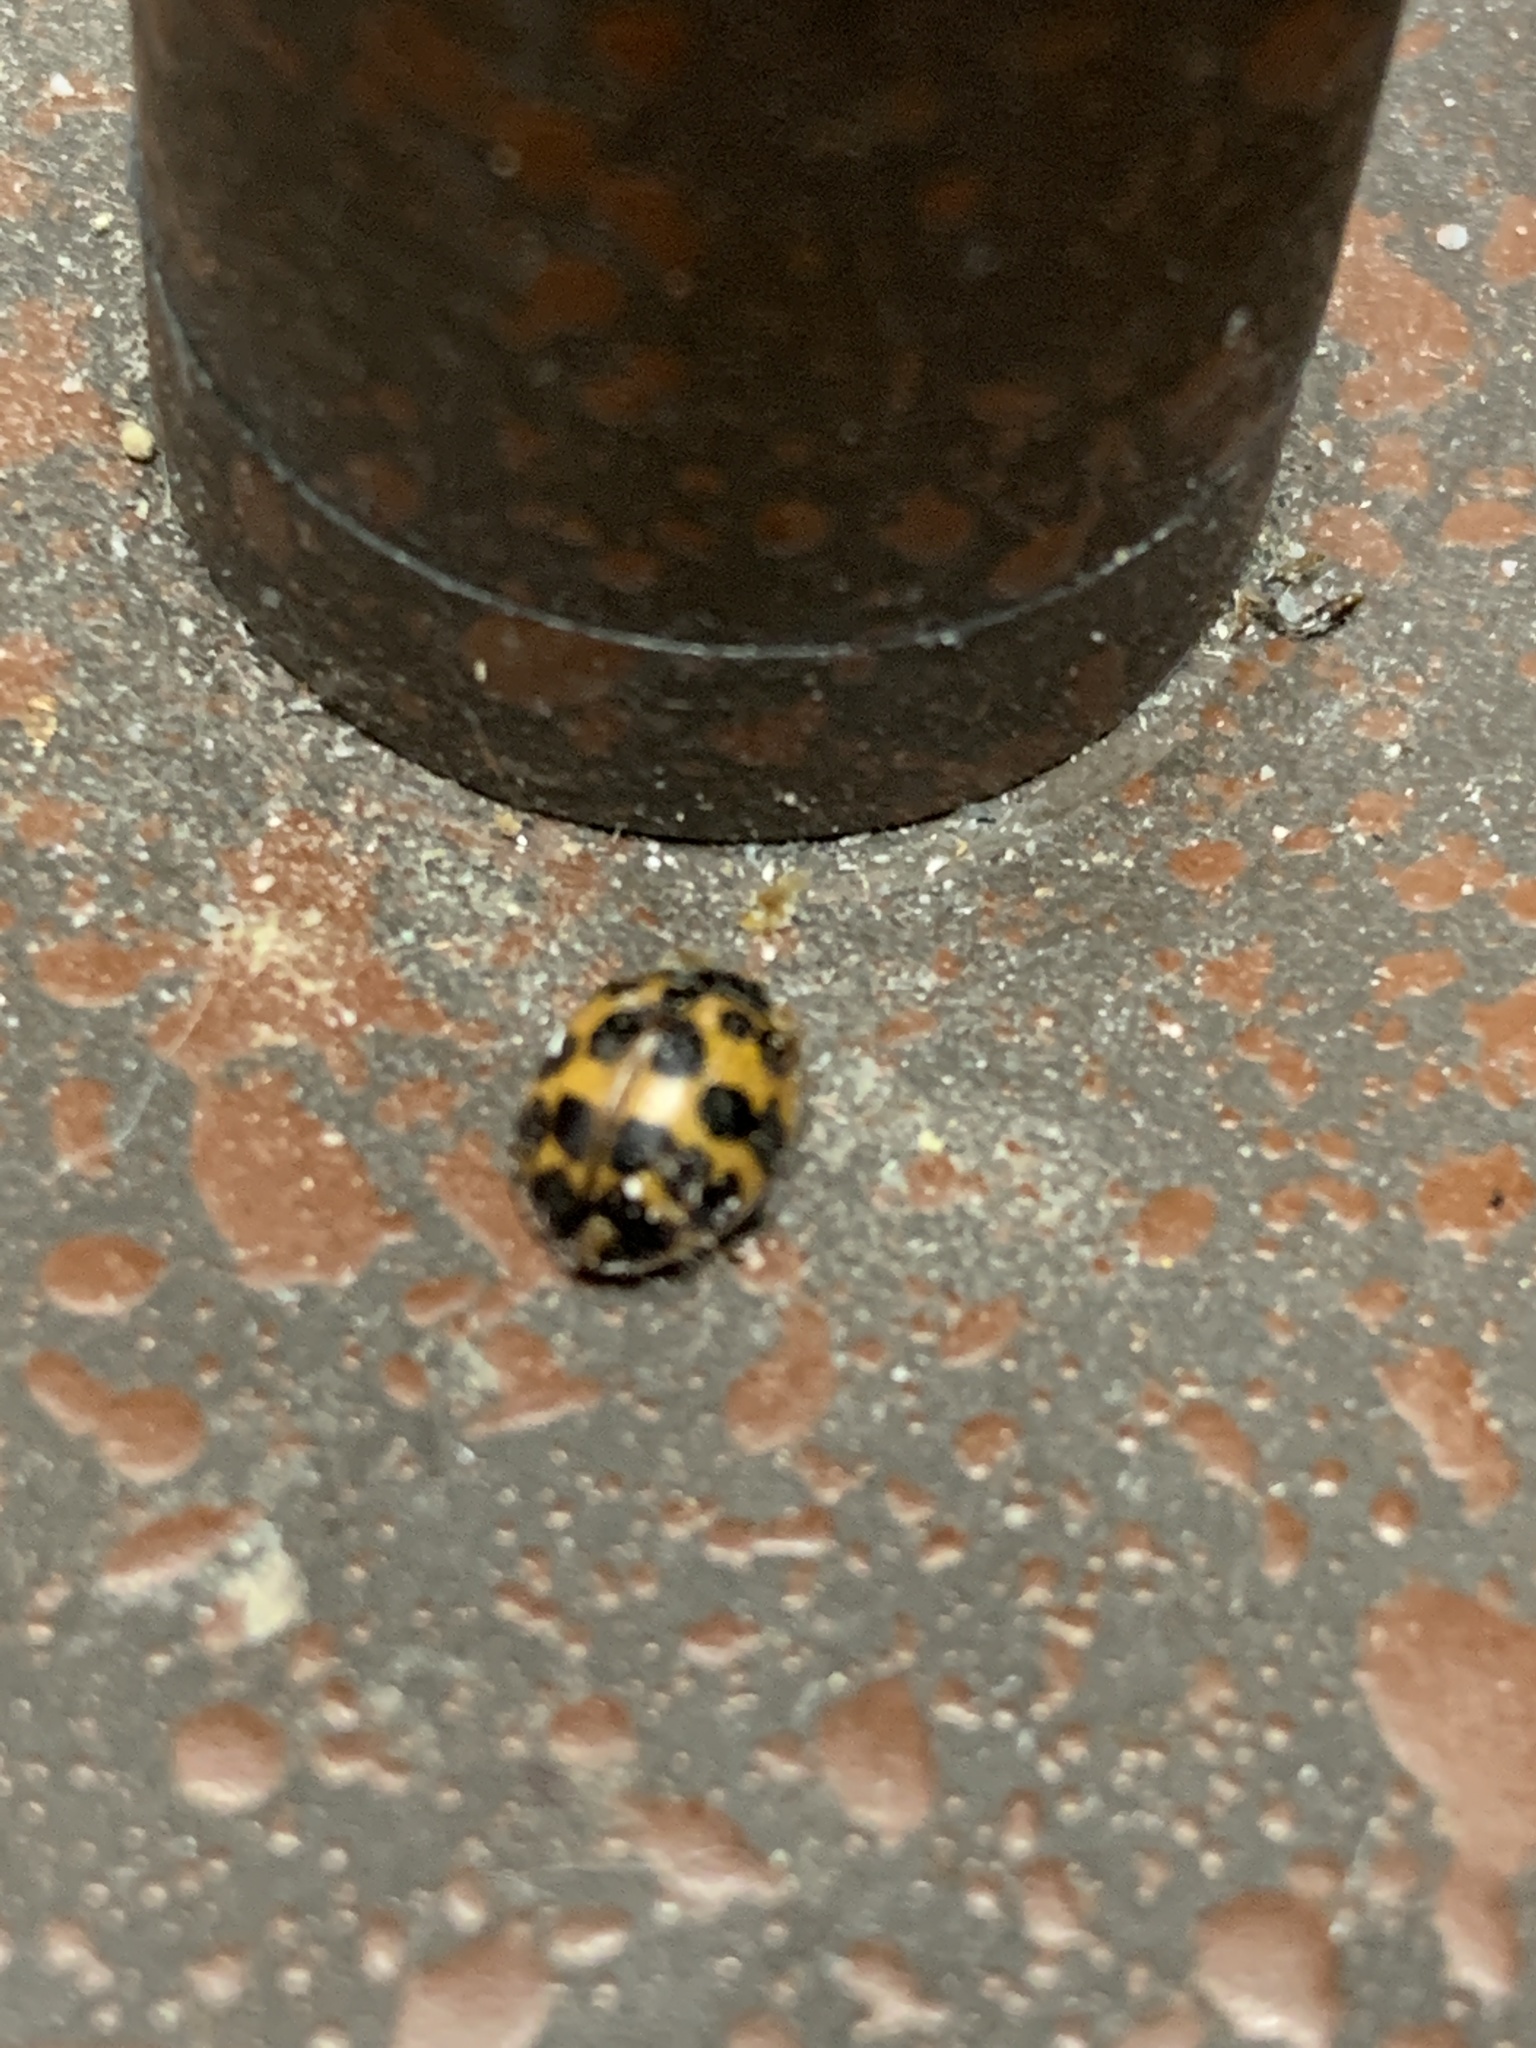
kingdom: Animalia
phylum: Arthropoda
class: Insecta
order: Coleoptera
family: Coccinellidae
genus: Harmonia
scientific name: Harmonia axyridis
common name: Harlequin ladybird
